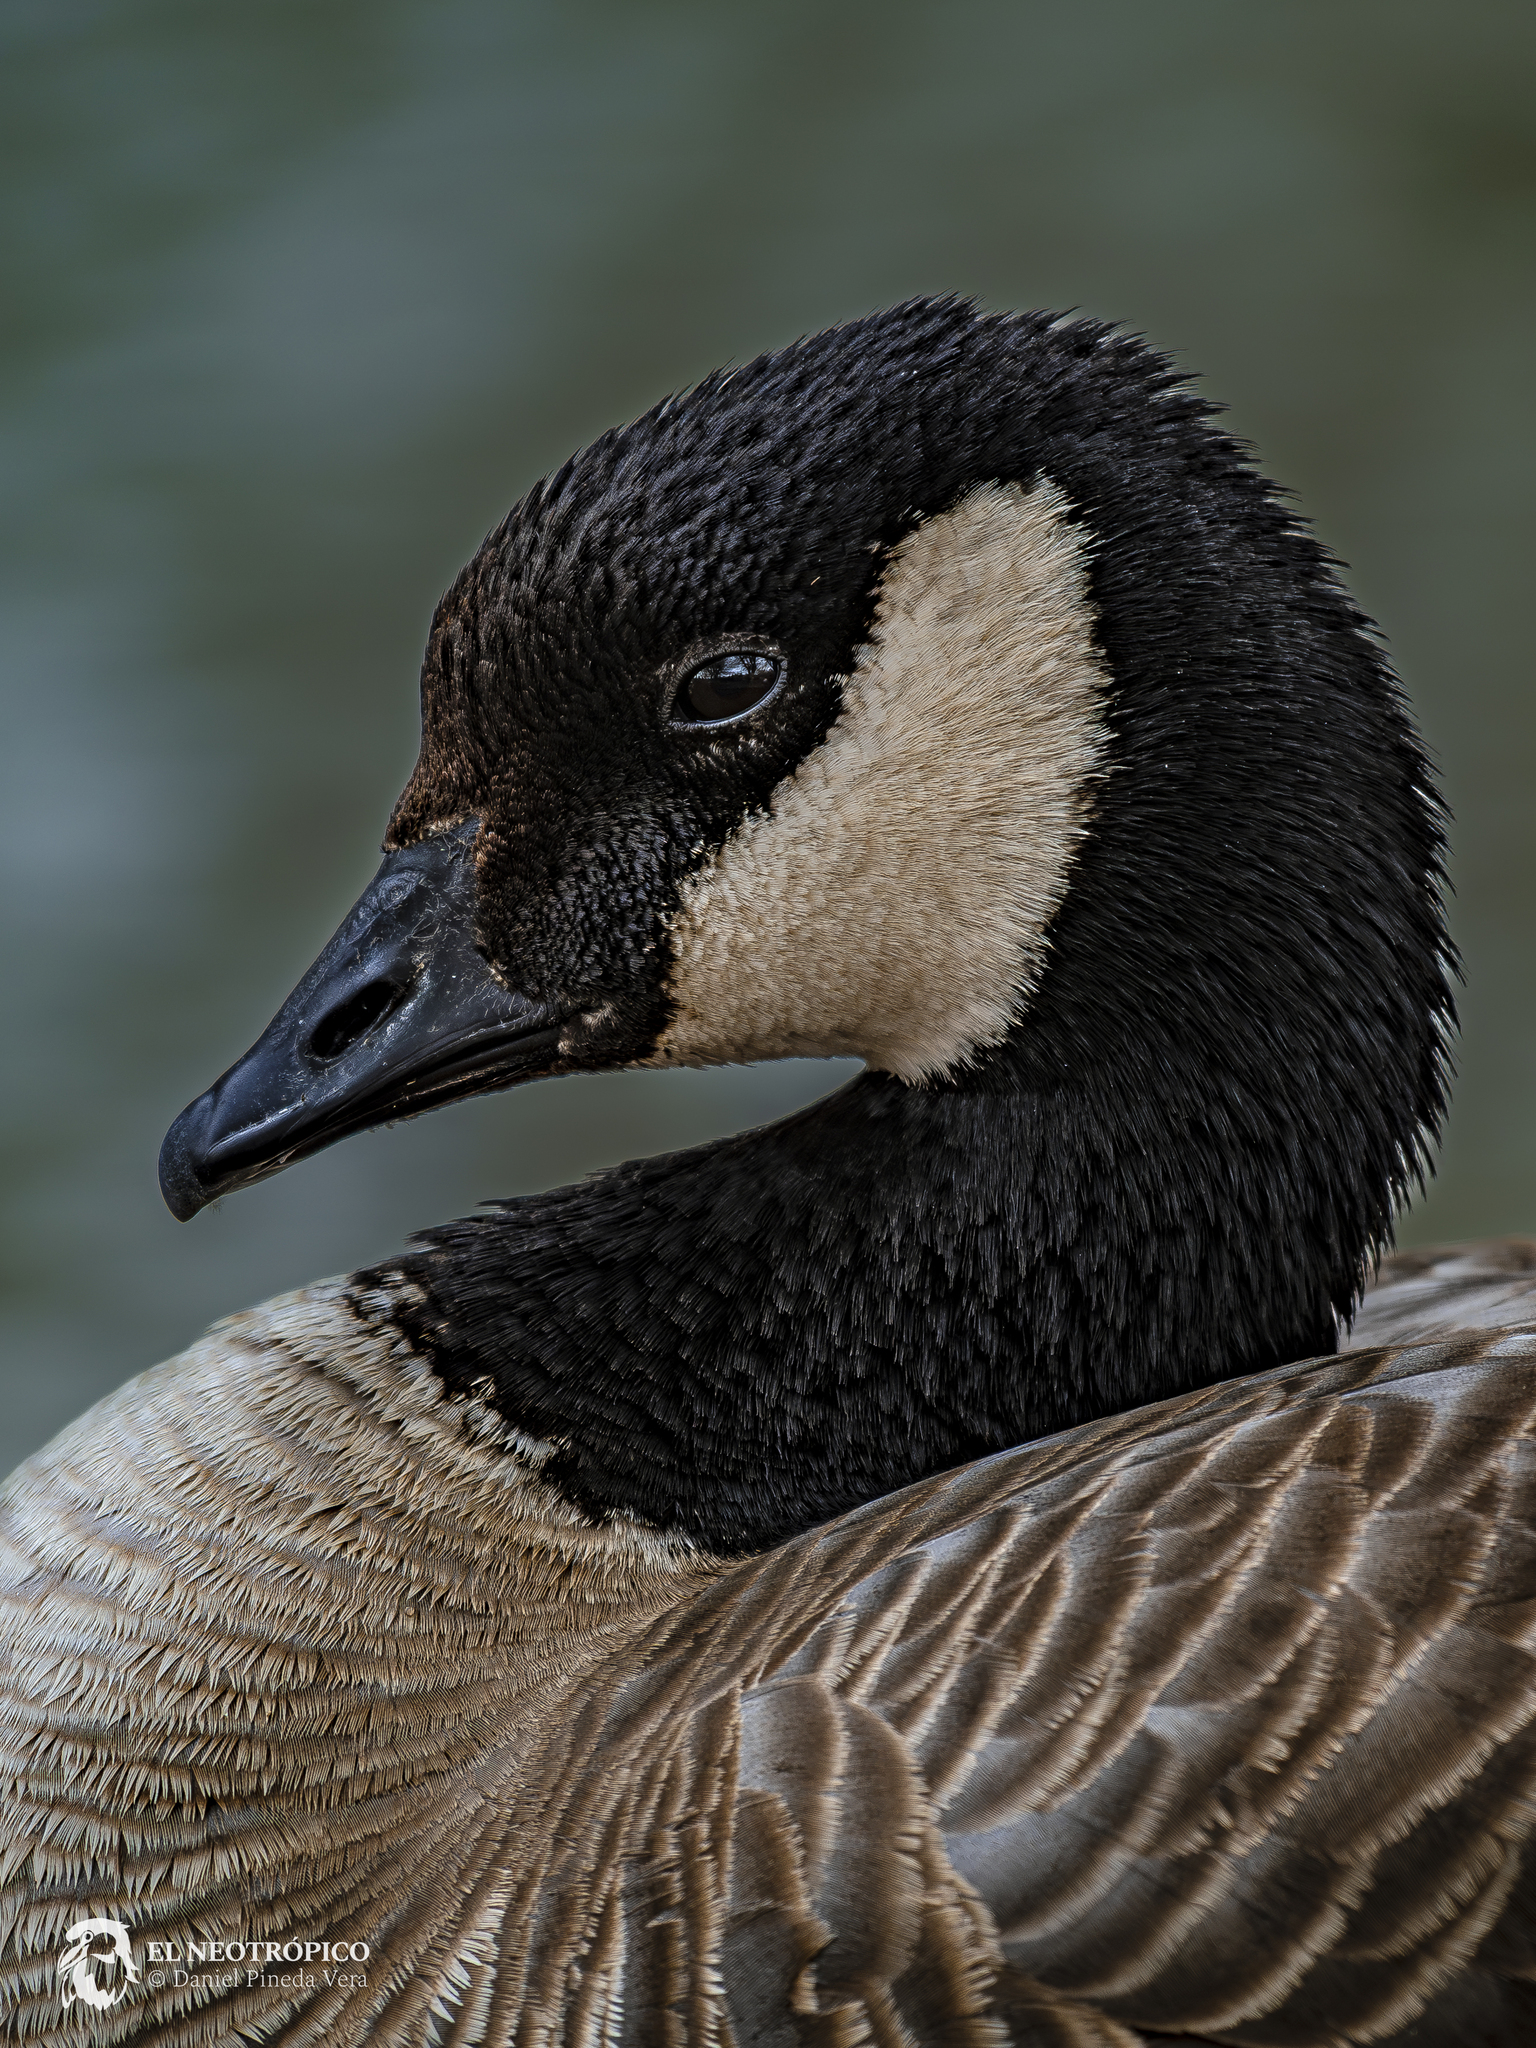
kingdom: Animalia
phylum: Chordata
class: Aves
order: Anseriformes
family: Anatidae
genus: Branta
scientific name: Branta hutchinsii
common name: Cackling goose
